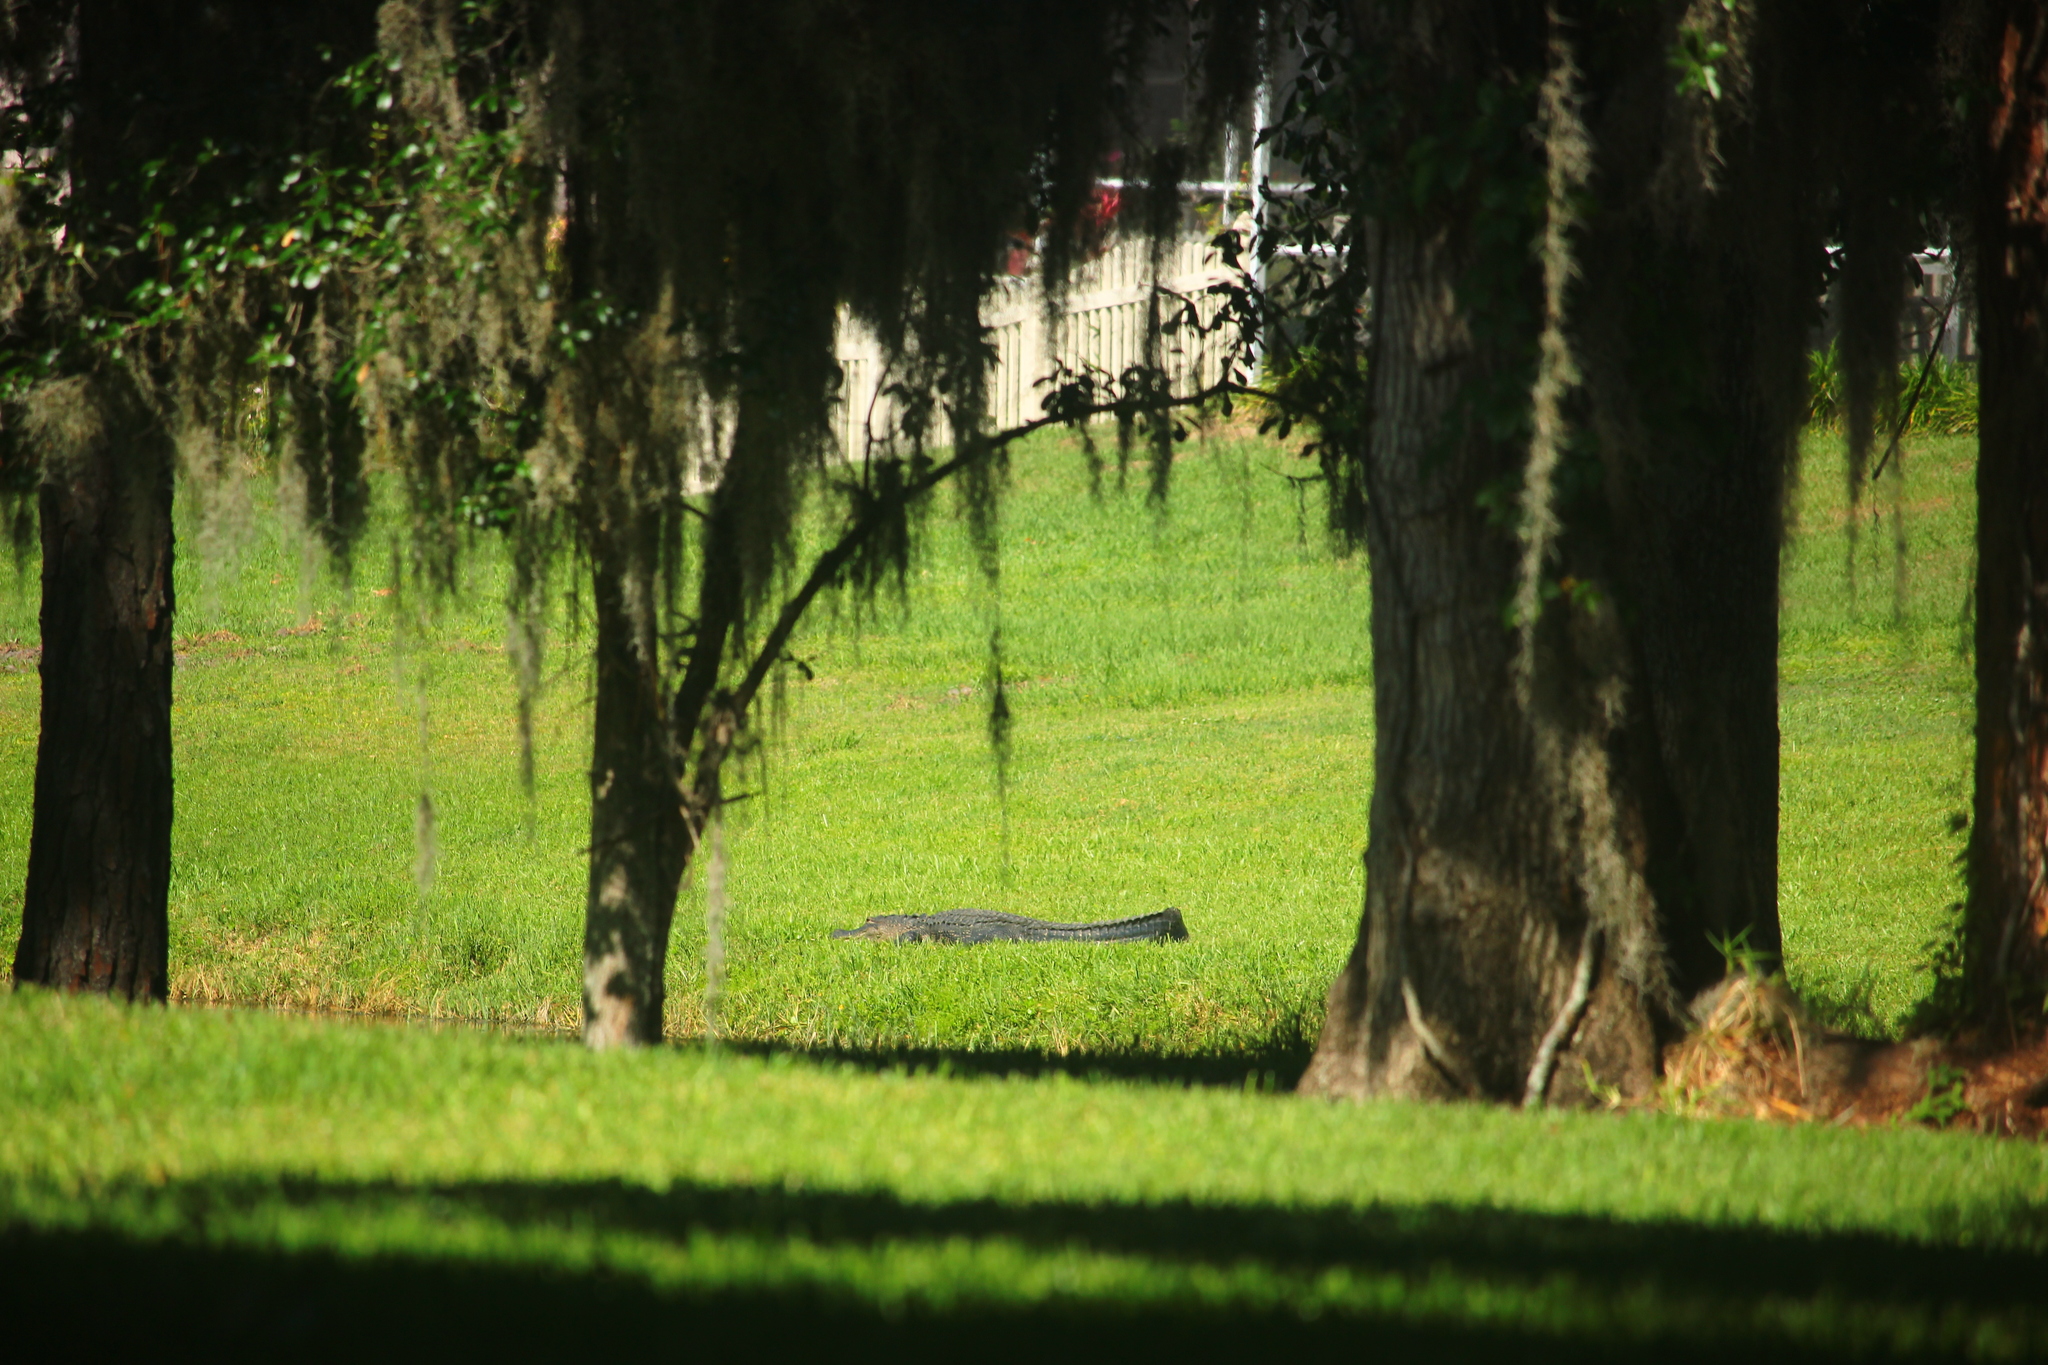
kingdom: Animalia
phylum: Chordata
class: Crocodylia
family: Alligatoridae
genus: Alligator
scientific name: Alligator mississippiensis
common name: American alligator
